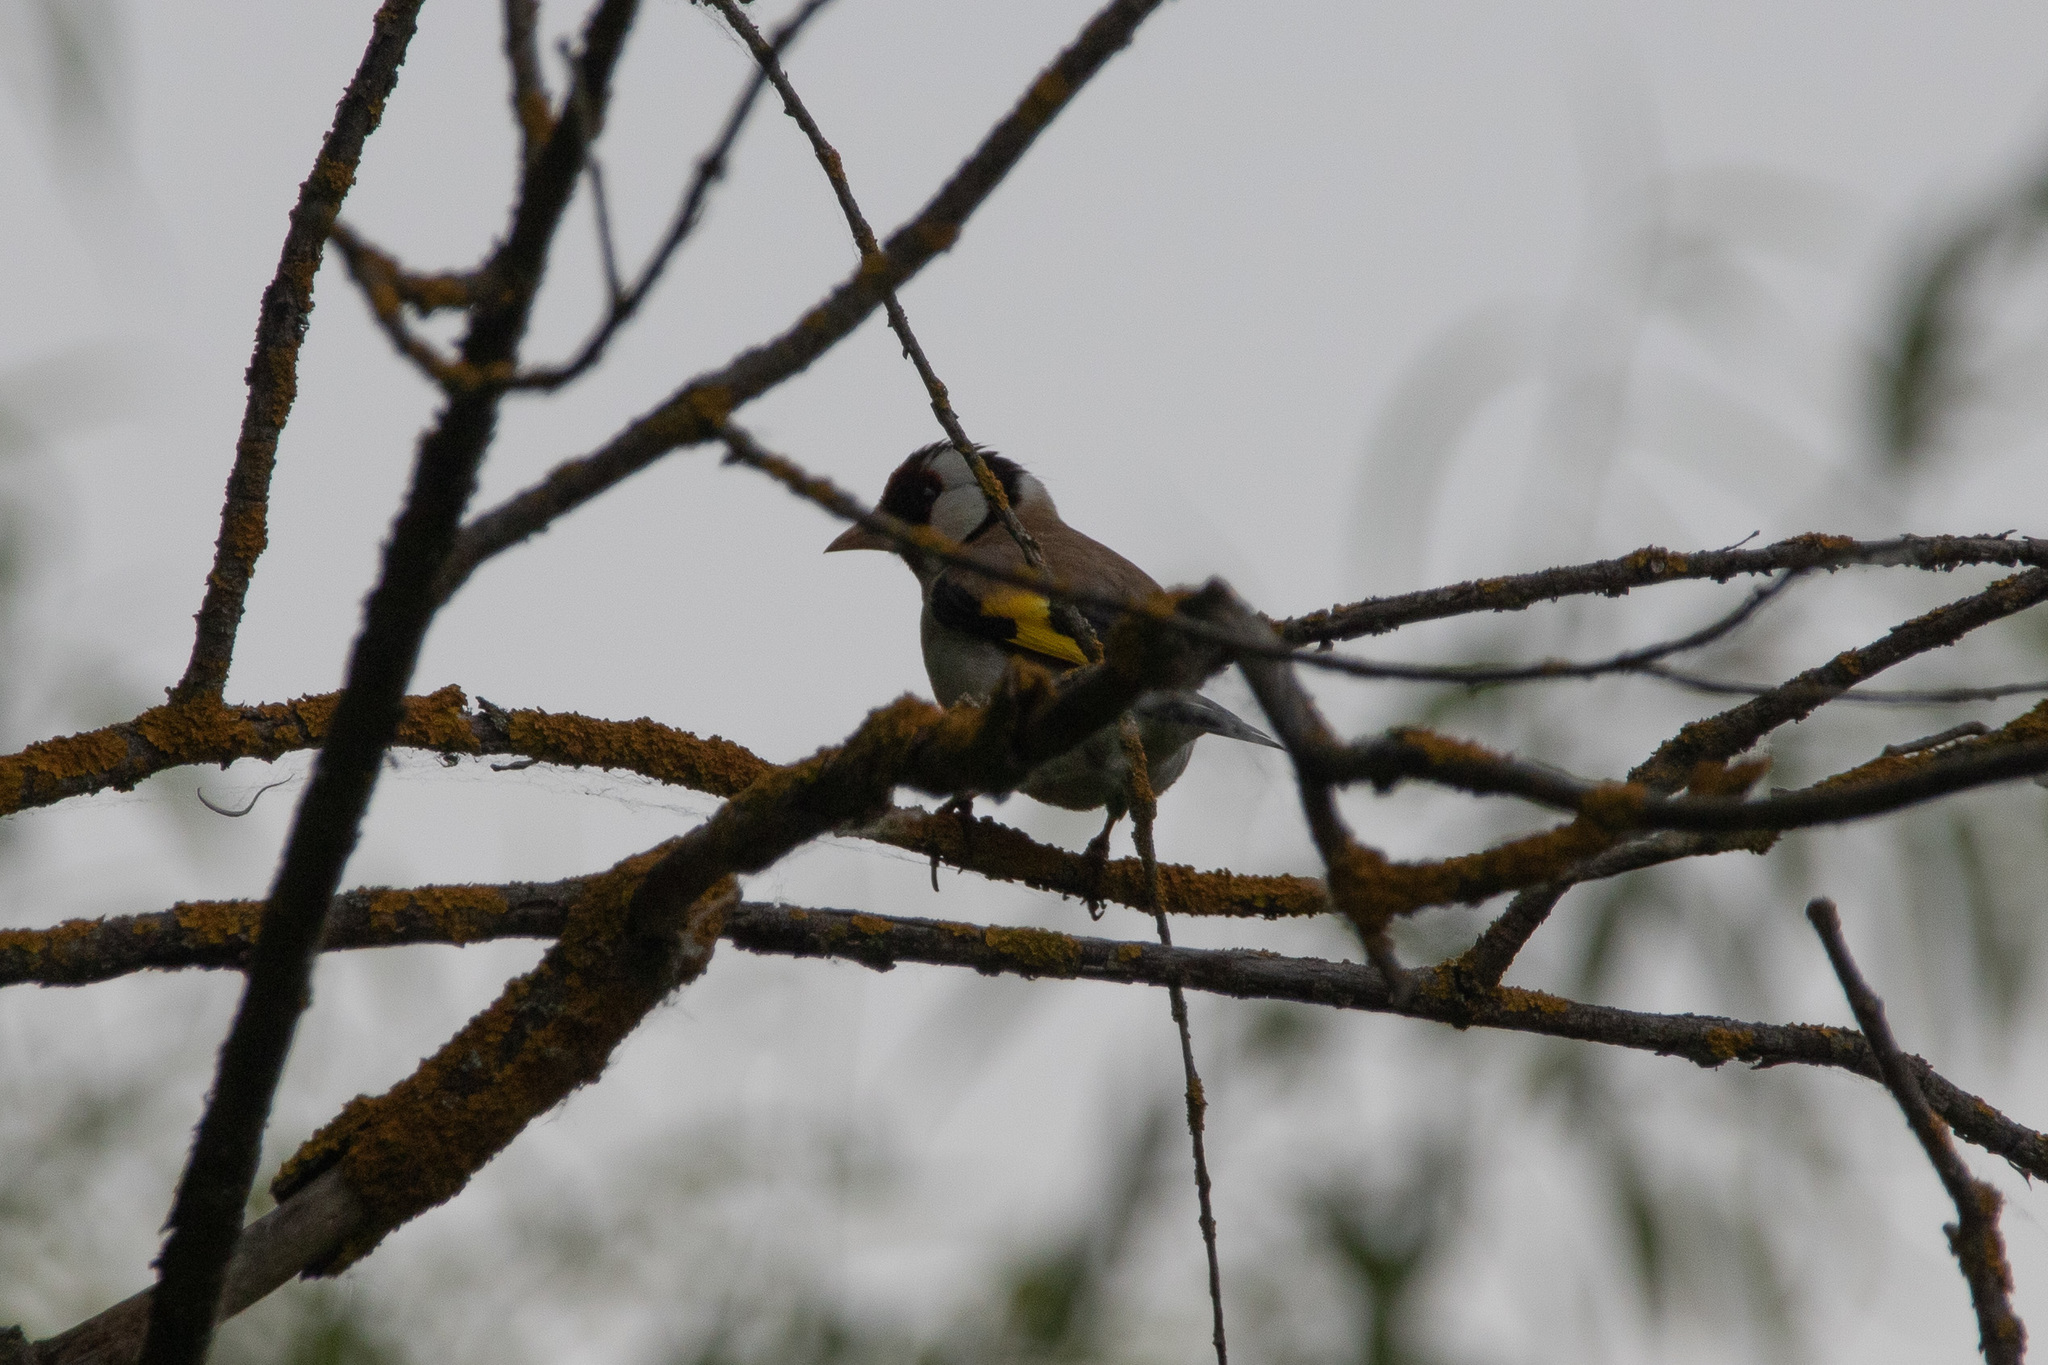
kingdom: Animalia
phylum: Chordata
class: Aves
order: Passeriformes
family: Fringillidae
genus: Carduelis
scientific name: Carduelis carduelis
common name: European goldfinch
